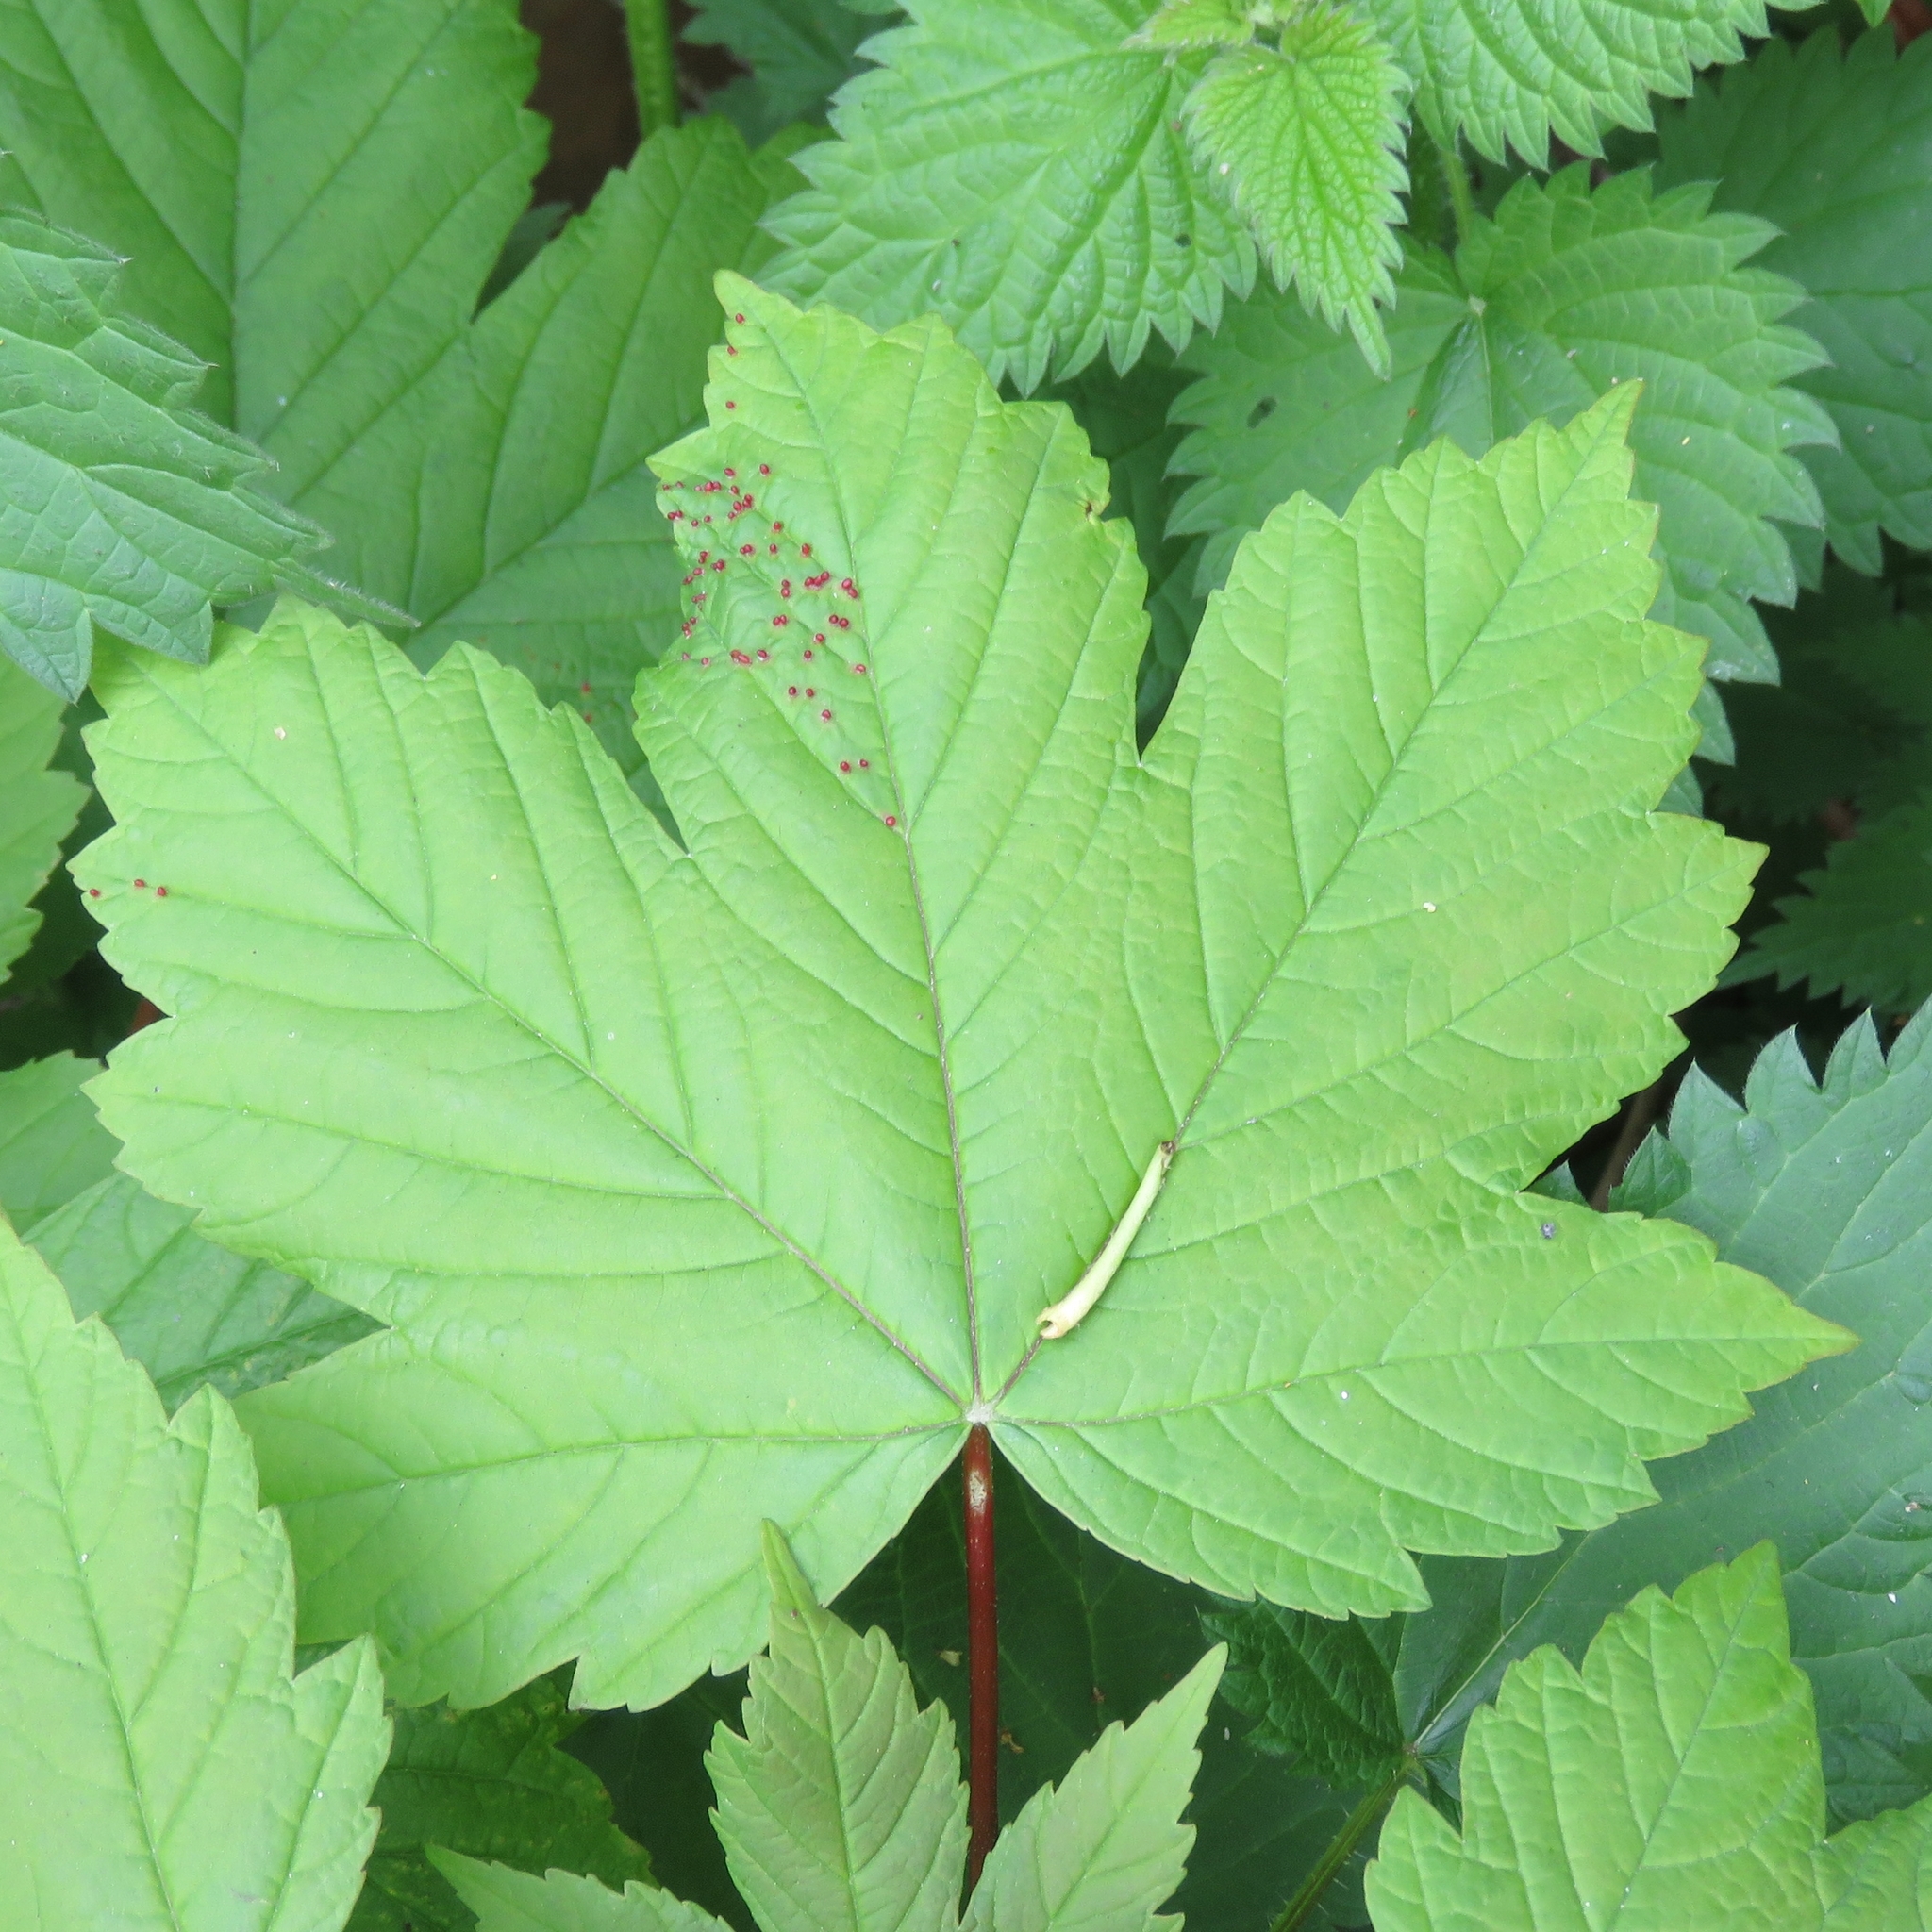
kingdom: Plantae
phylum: Tracheophyta
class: Magnoliopsida
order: Sapindales
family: Sapindaceae
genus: Acer
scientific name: Acer pseudoplatanus
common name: Sycamore
